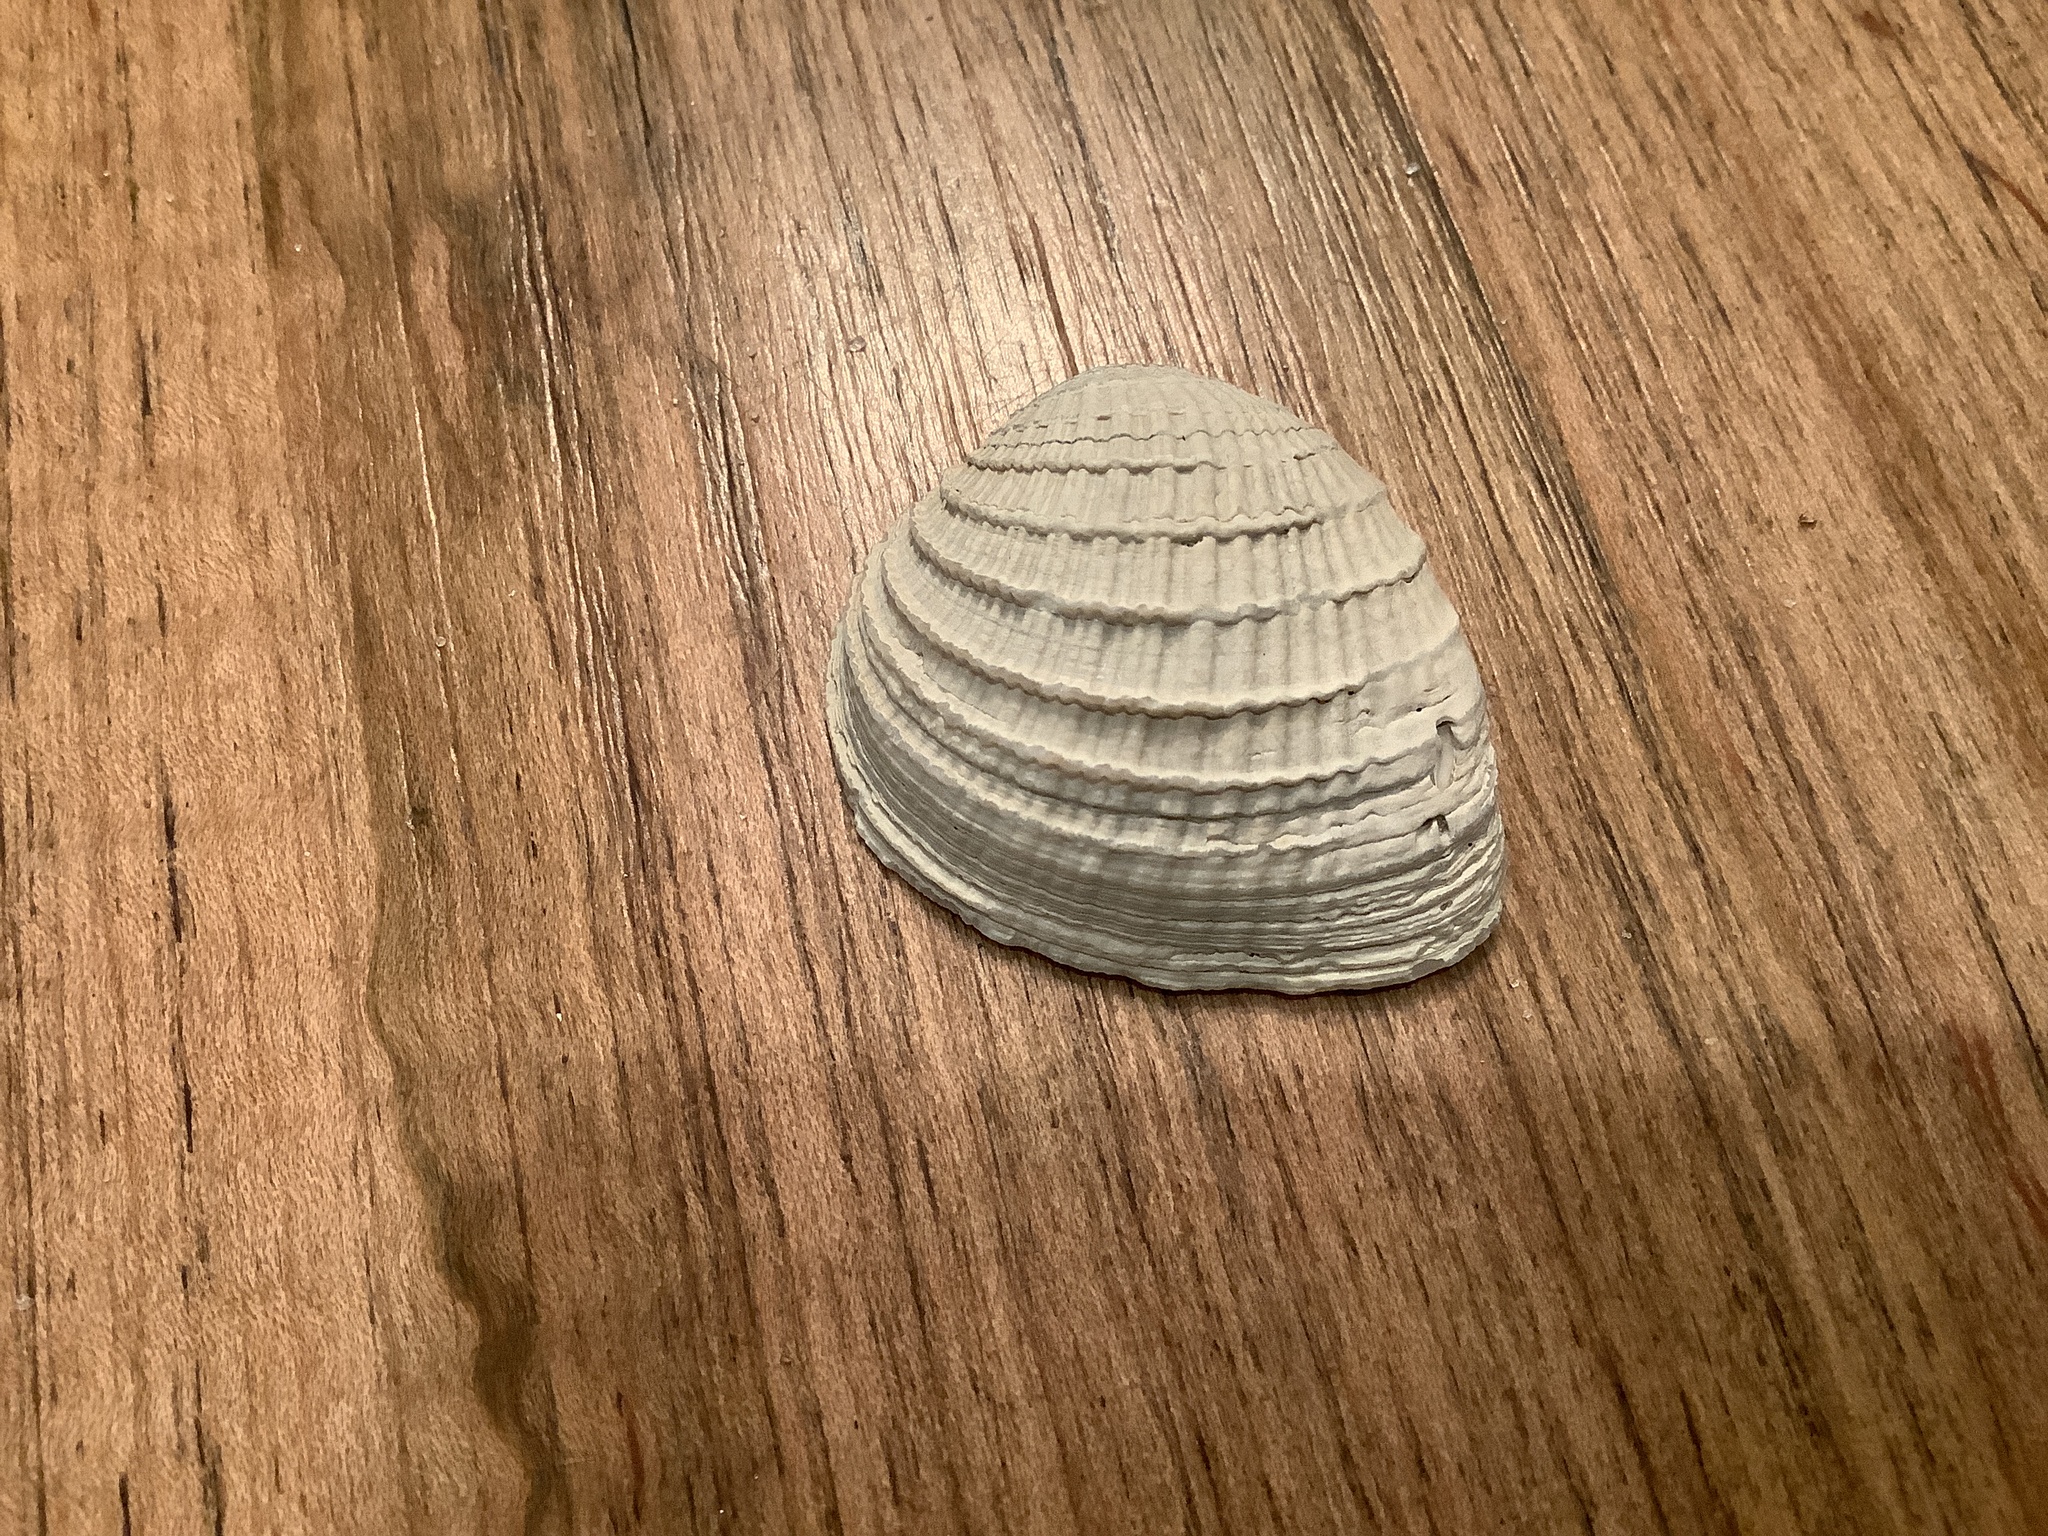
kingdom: Animalia
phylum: Mollusca
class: Bivalvia
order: Venerida
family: Veneridae
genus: Chione
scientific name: Chione elevata
